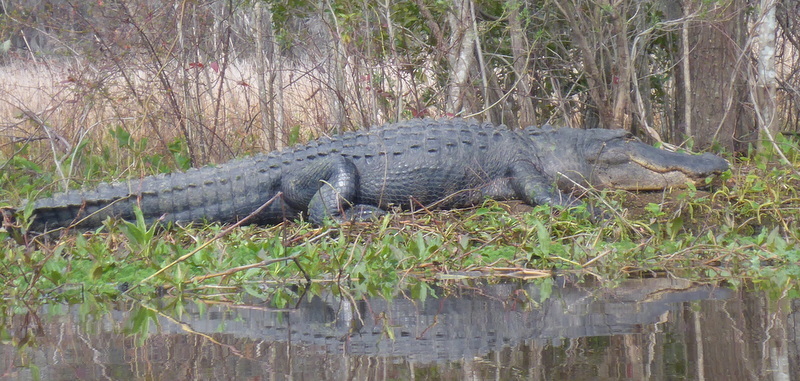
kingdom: Animalia
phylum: Chordata
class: Crocodylia
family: Alligatoridae
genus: Alligator
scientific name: Alligator mississippiensis
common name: American alligator
